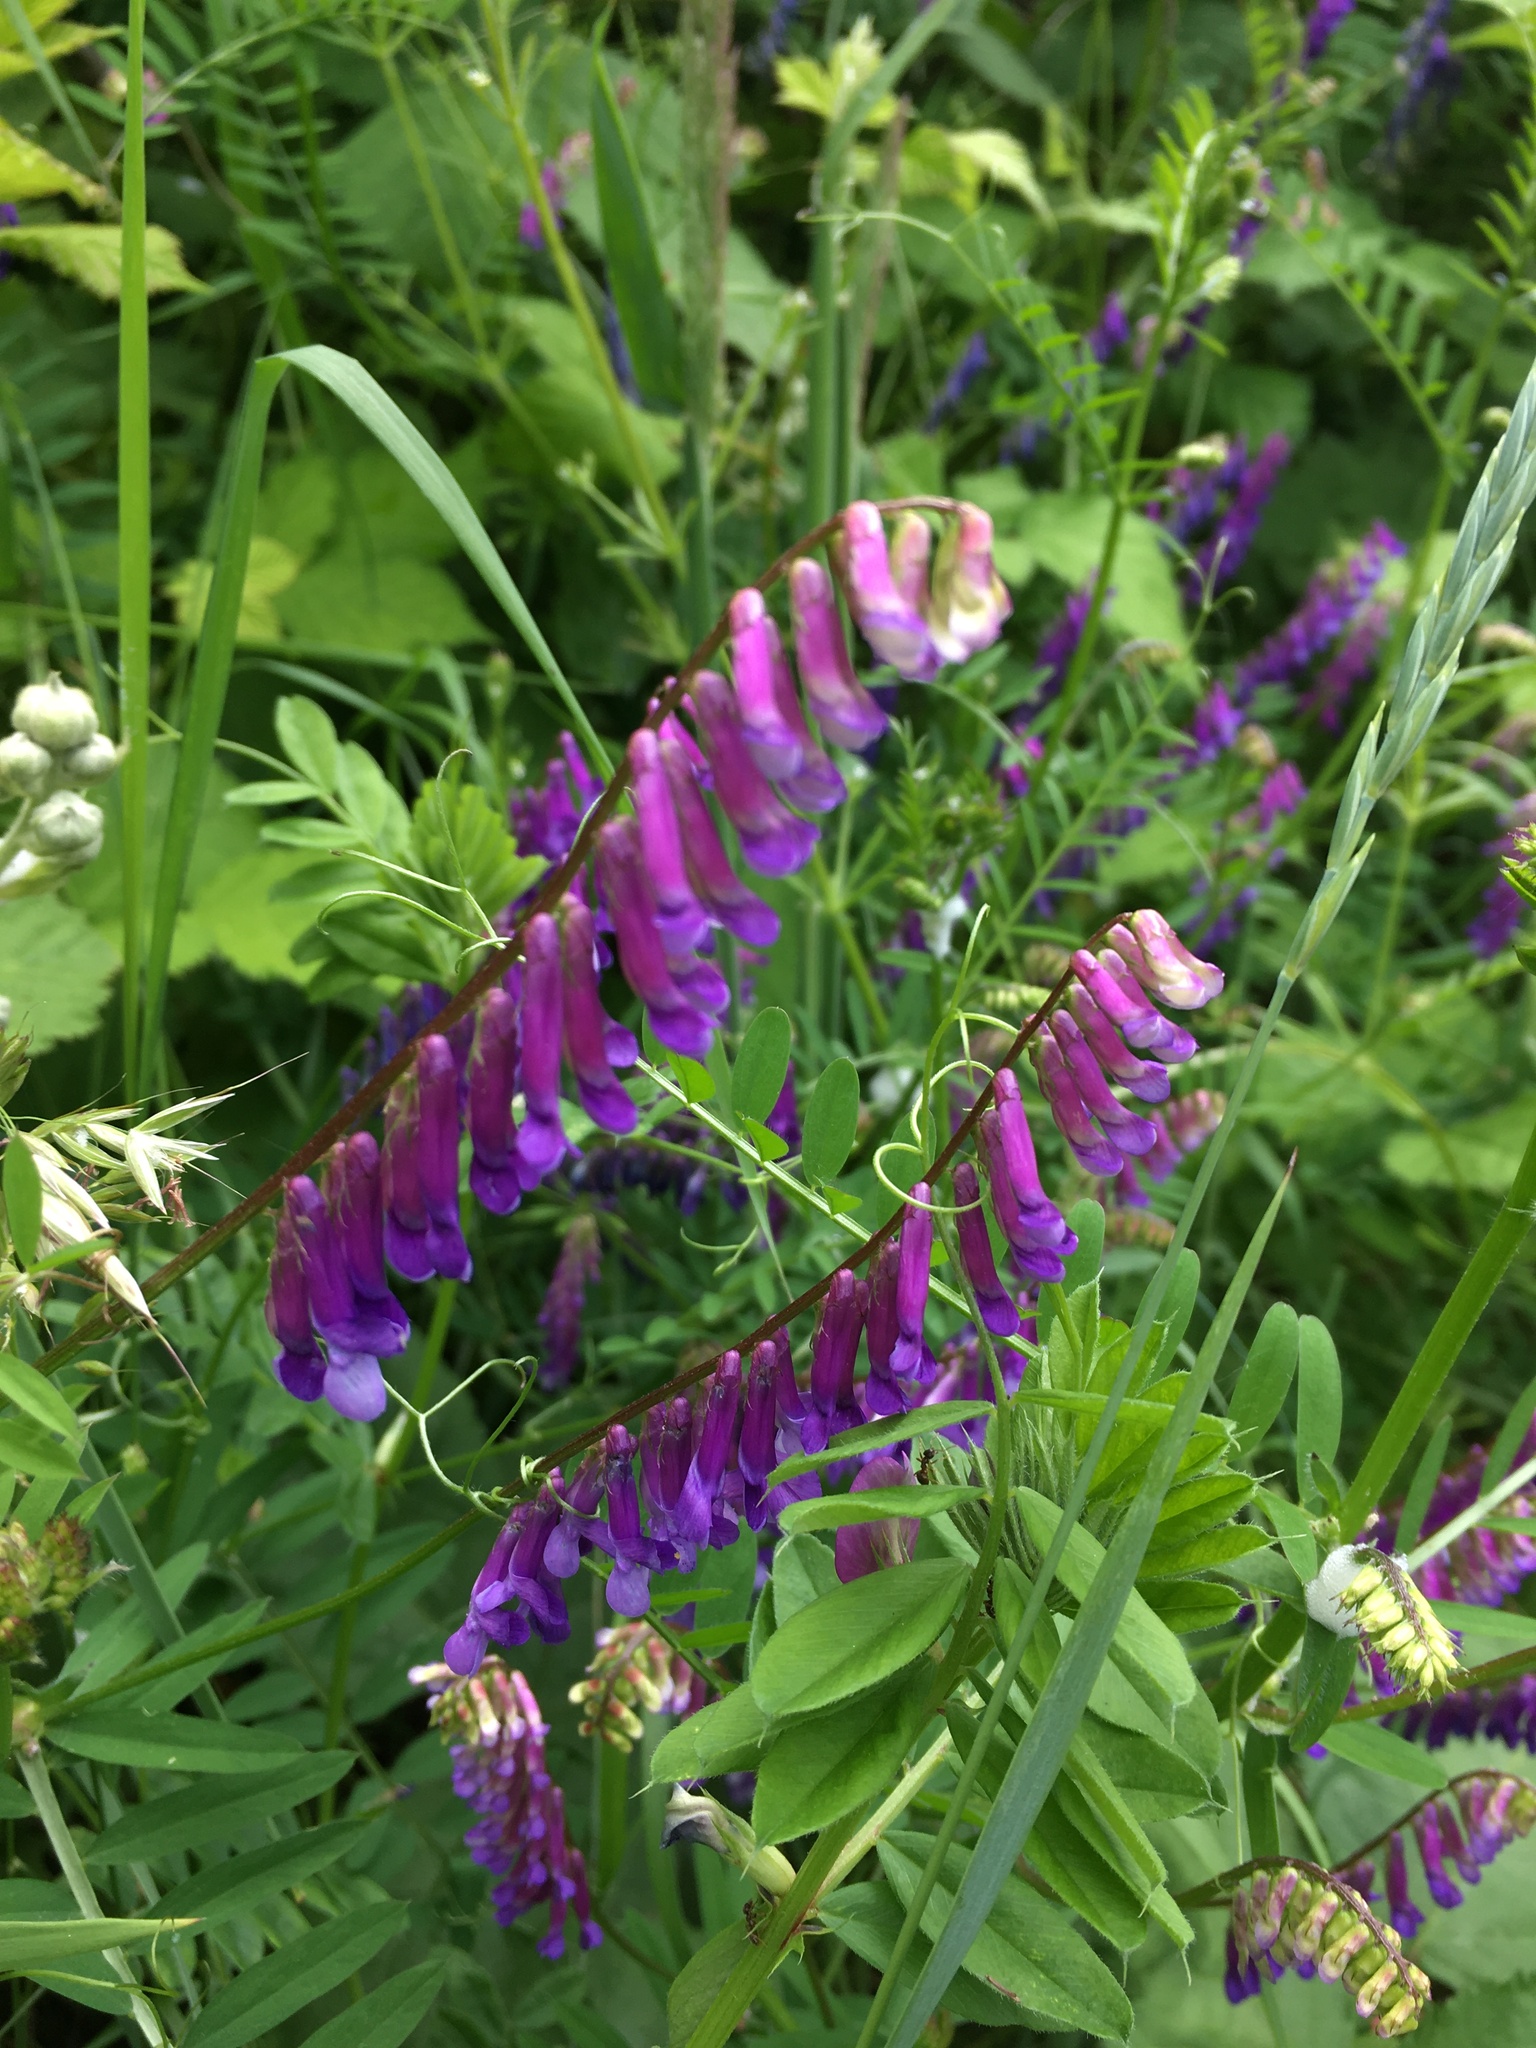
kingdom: Plantae
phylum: Tracheophyta
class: Magnoliopsida
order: Fabales
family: Fabaceae
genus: Vicia
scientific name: Vicia villosa
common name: Fodder vetch
